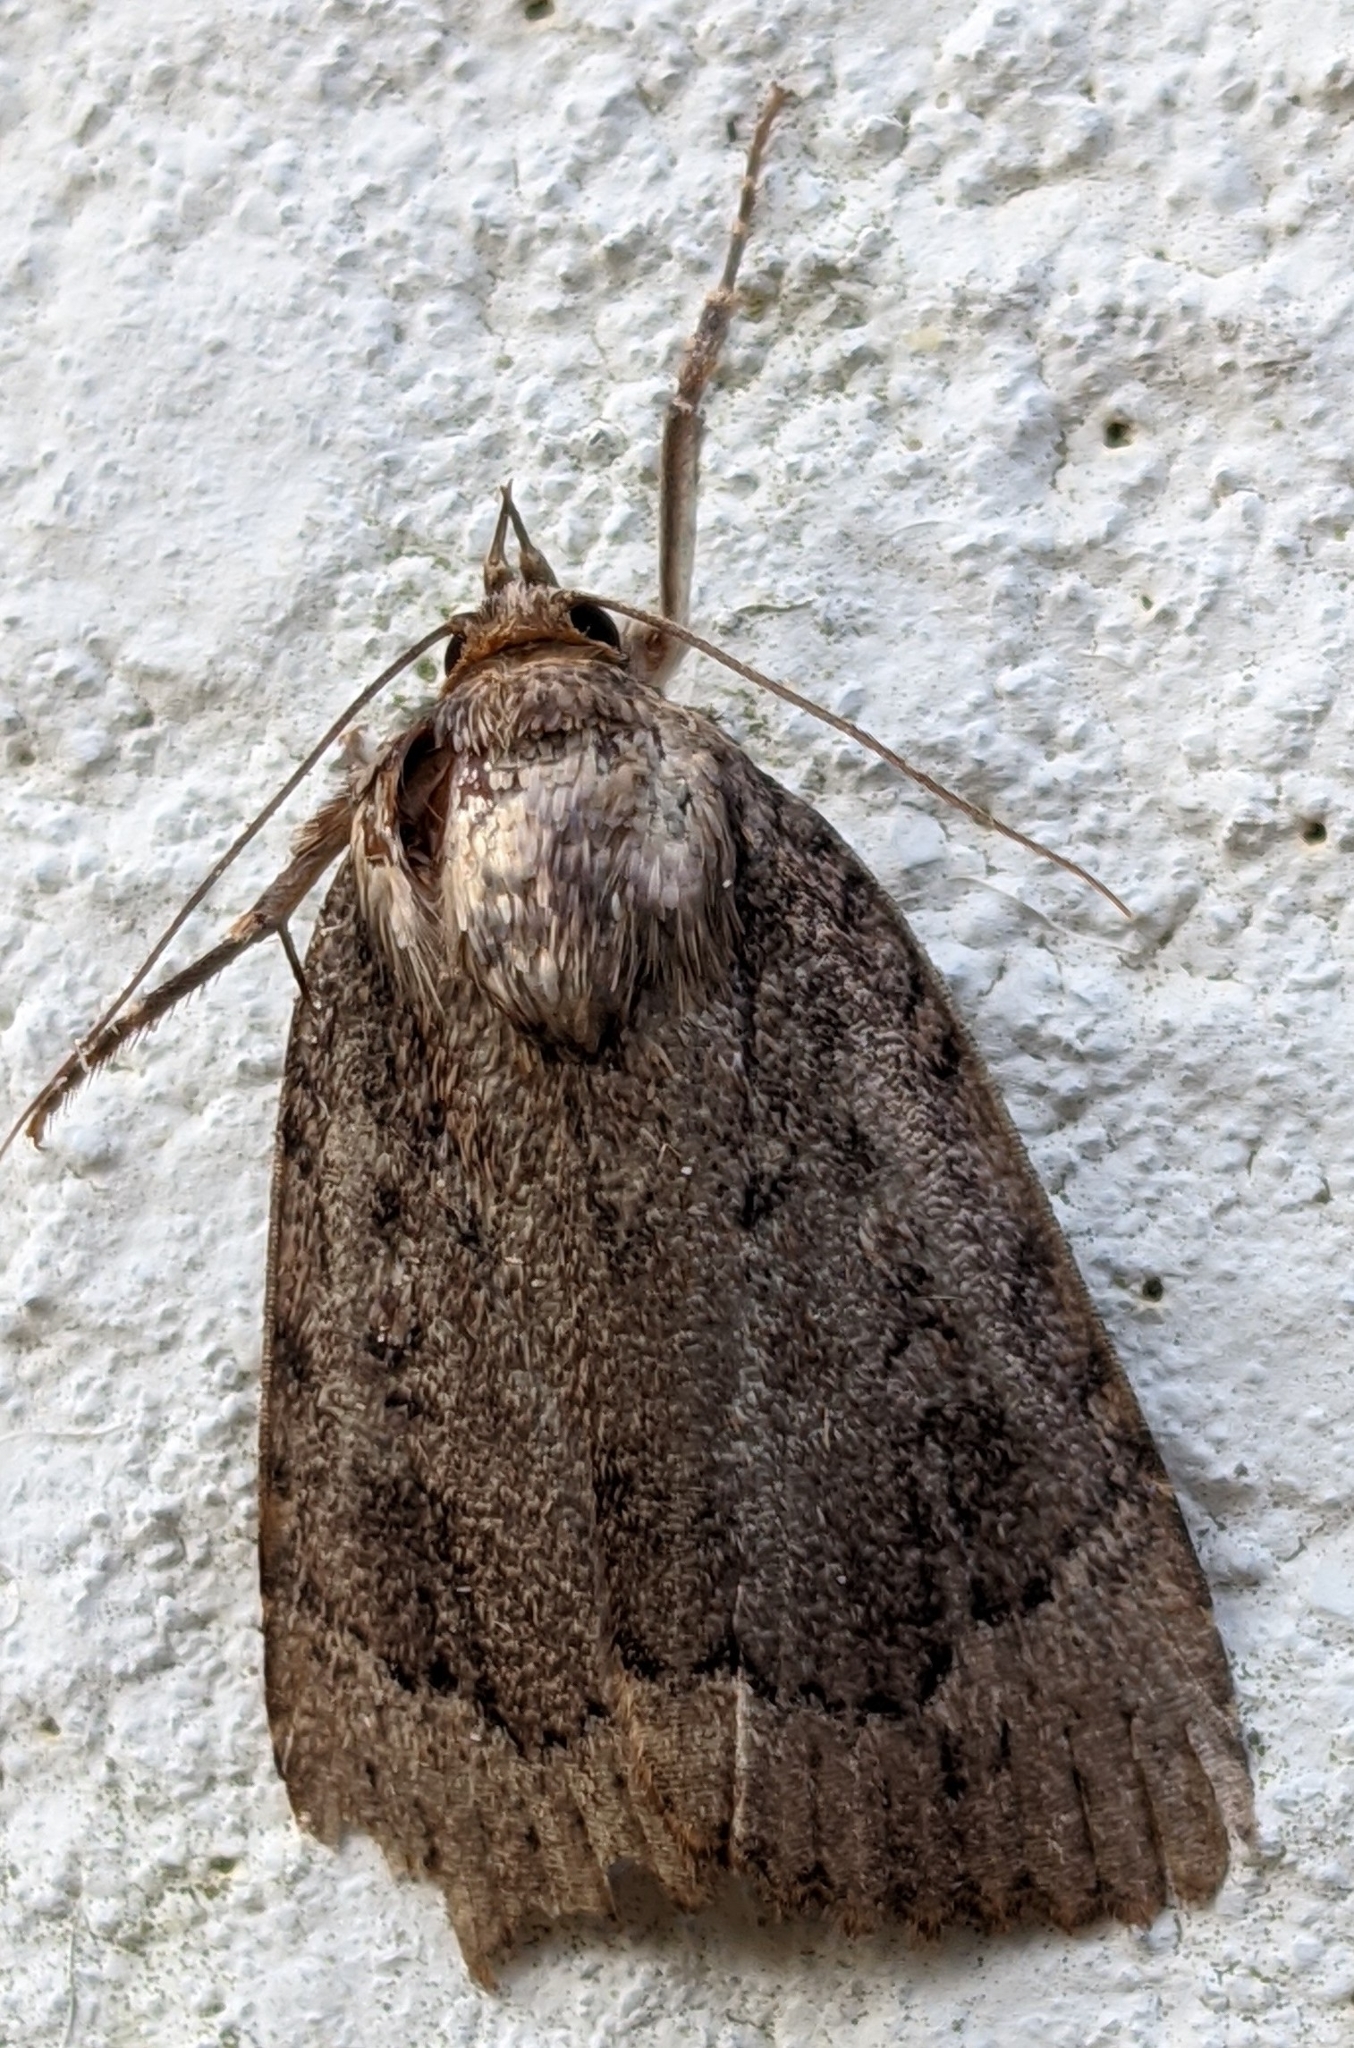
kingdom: Animalia
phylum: Arthropoda
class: Insecta
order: Lepidoptera
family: Noctuidae
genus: Amphipyra
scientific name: Amphipyra pyramidoides
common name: American copper underwing
